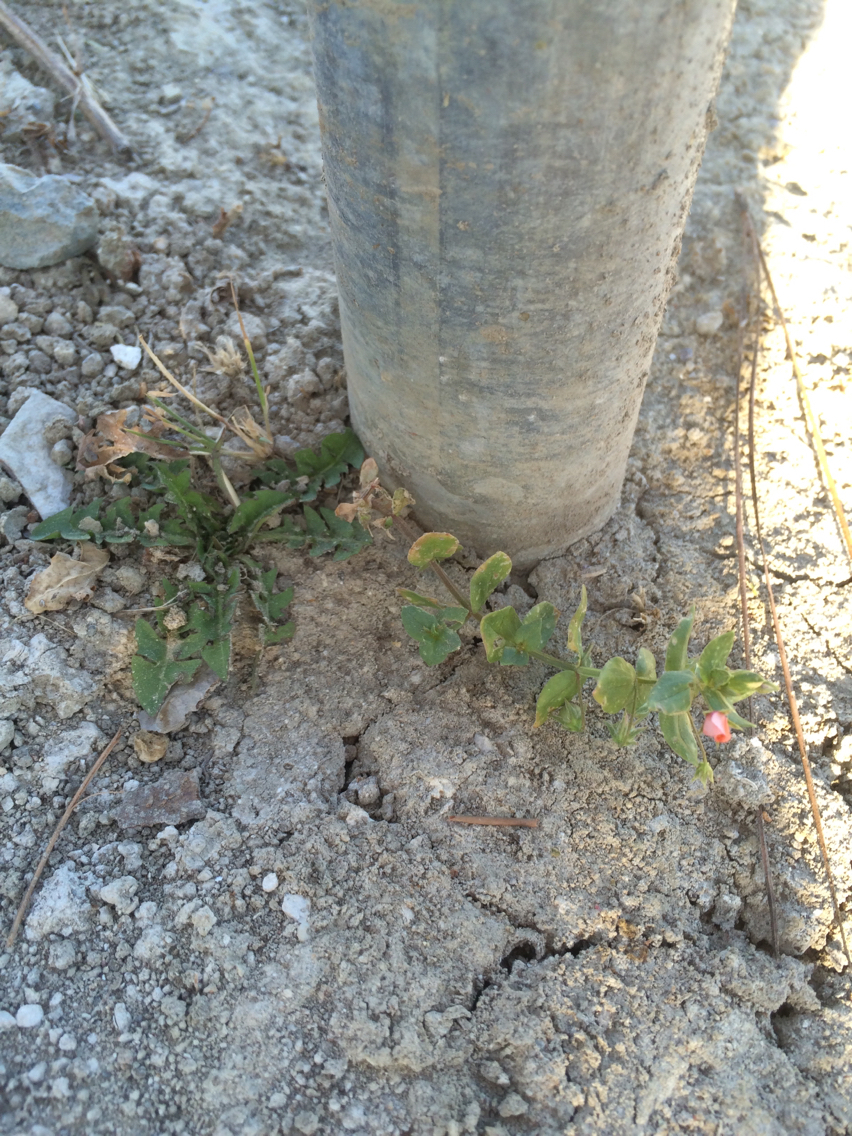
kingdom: Plantae
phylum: Tracheophyta
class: Magnoliopsida
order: Ericales
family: Primulaceae
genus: Lysimachia
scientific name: Lysimachia arvensis
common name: Scarlet pimpernel
